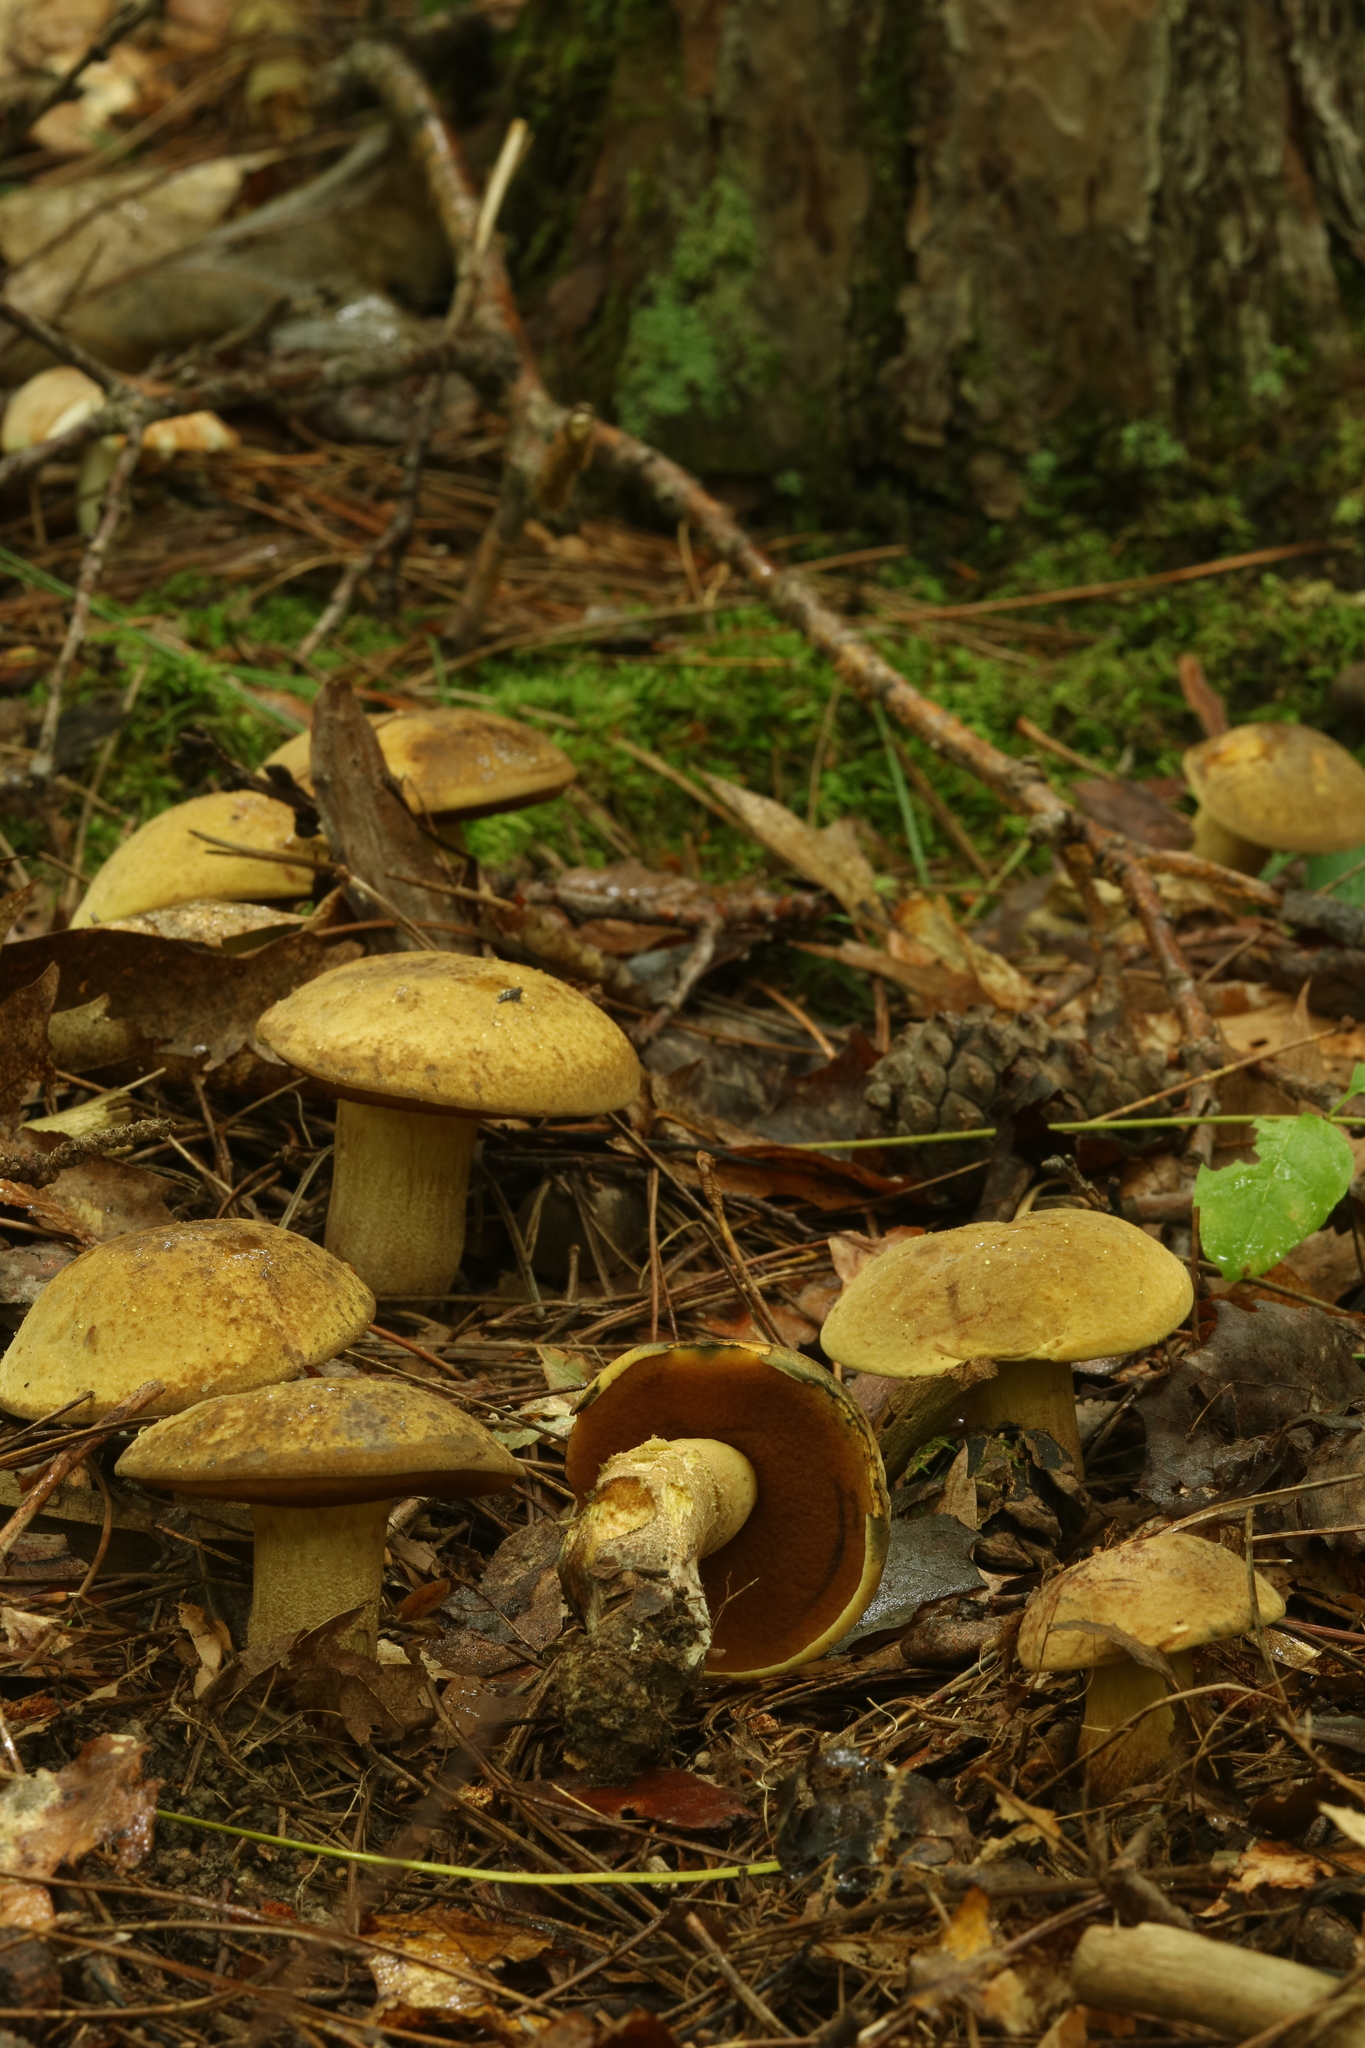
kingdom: Fungi
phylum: Basidiomycota
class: Agaricomycetes
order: Boletales
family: Boletaceae
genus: Boletus
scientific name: Boletus vermiculosoides
